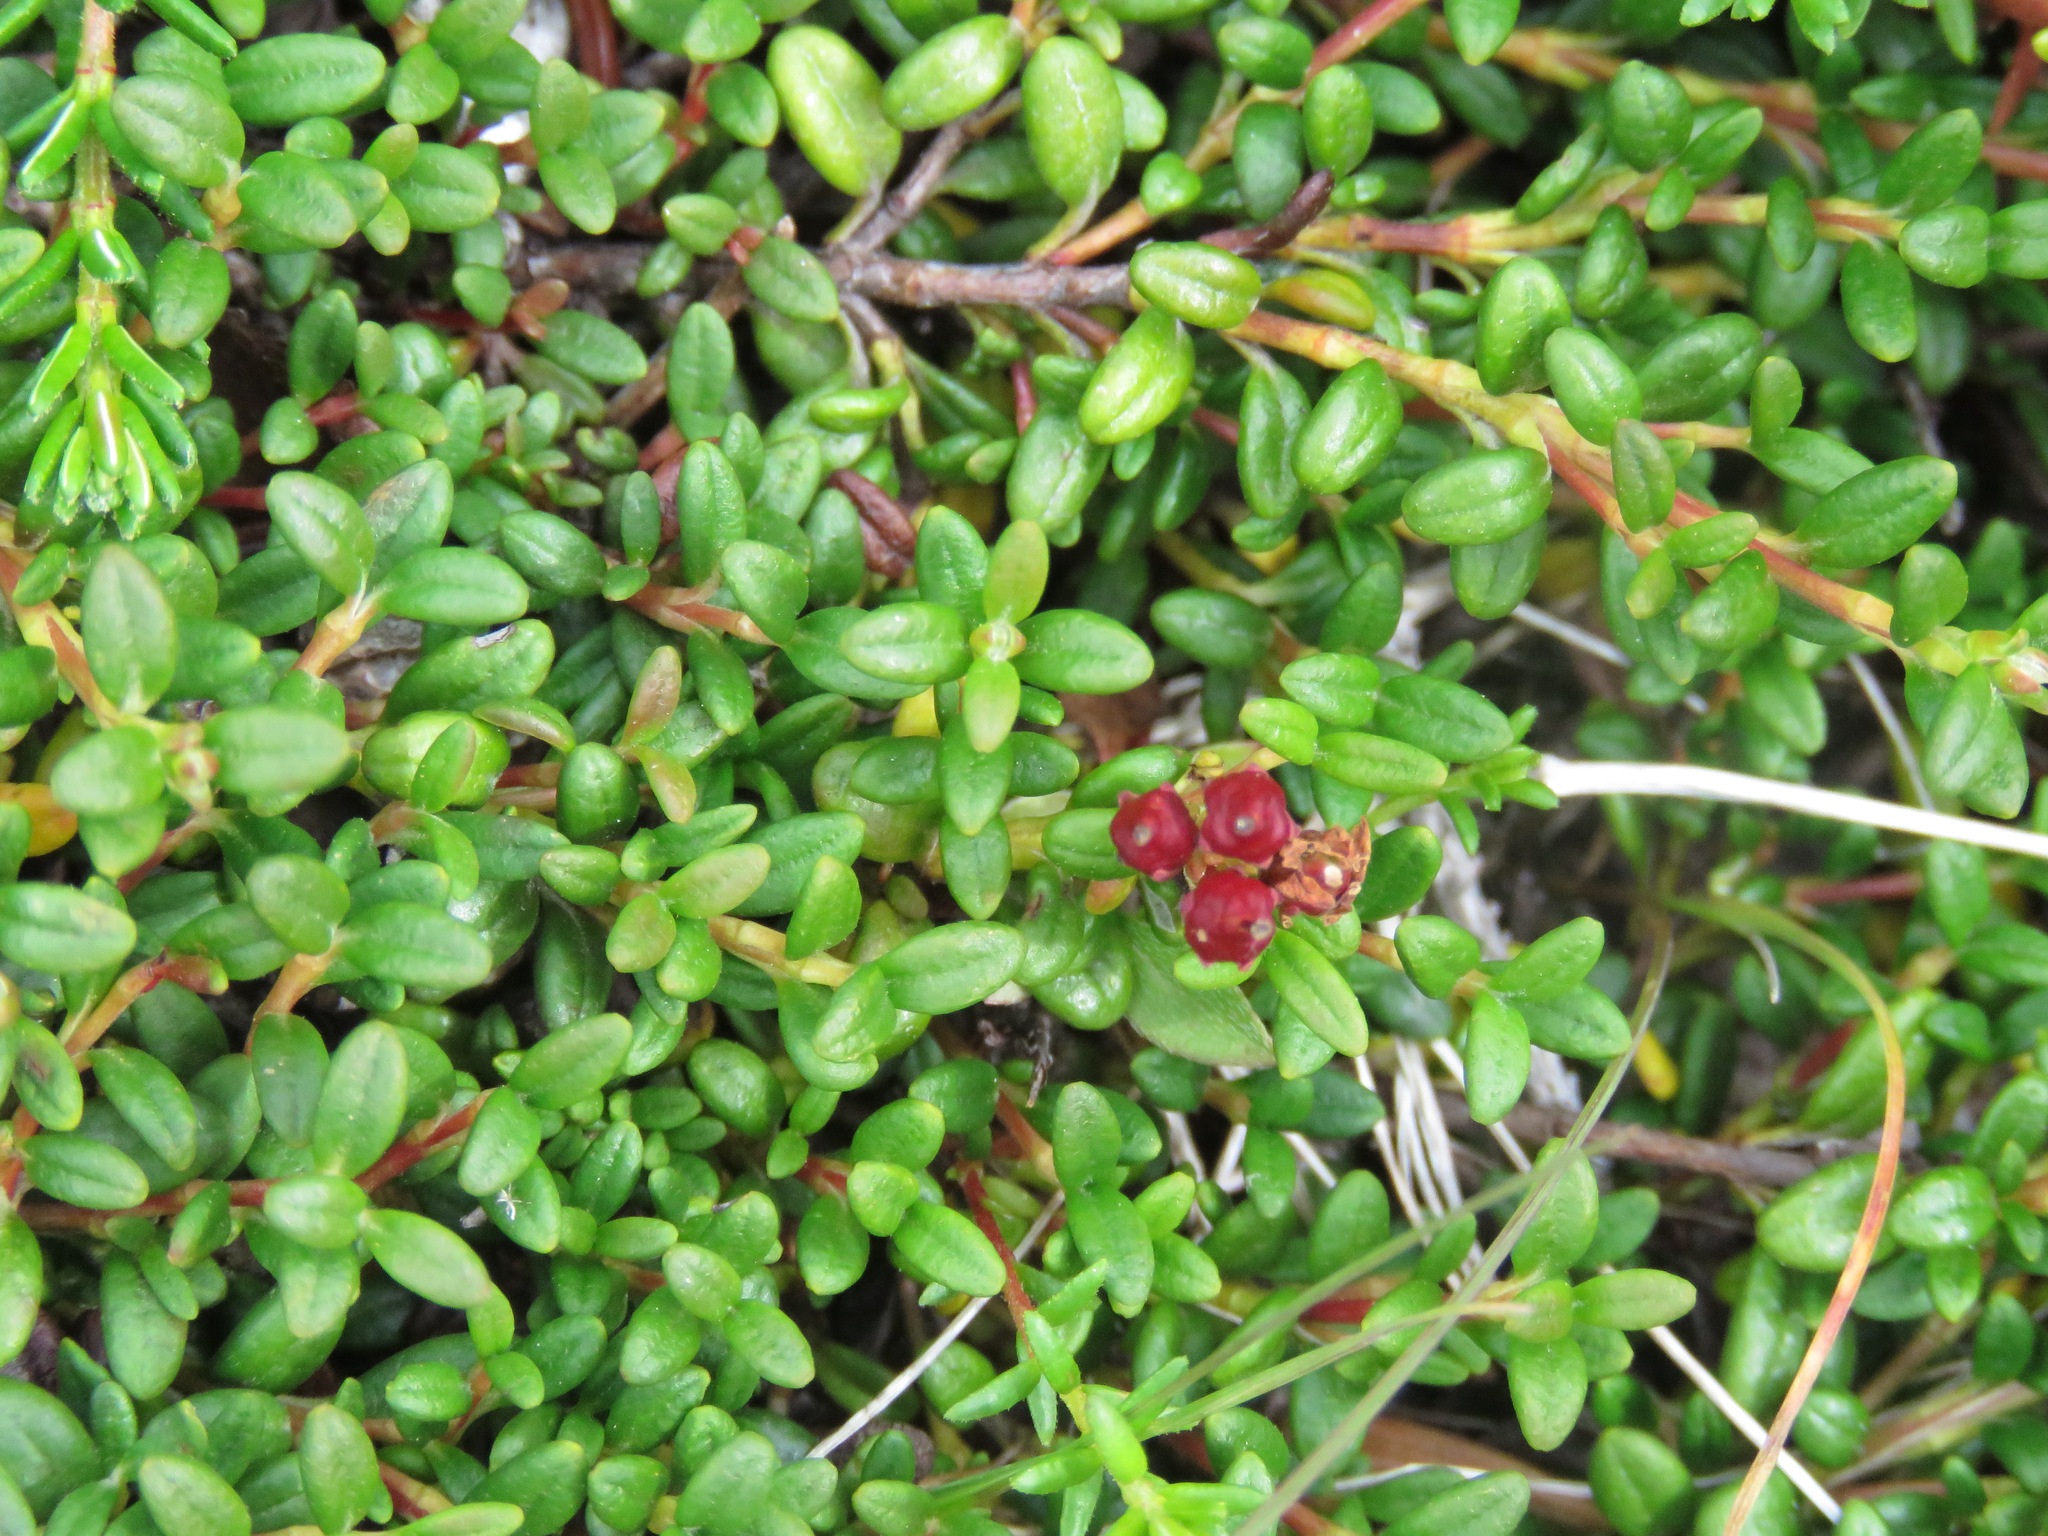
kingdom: Plantae
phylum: Tracheophyta
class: Magnoliopsida
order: Ericales
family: Ericaceae
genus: Kalmia
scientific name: Kalmia procumbens
